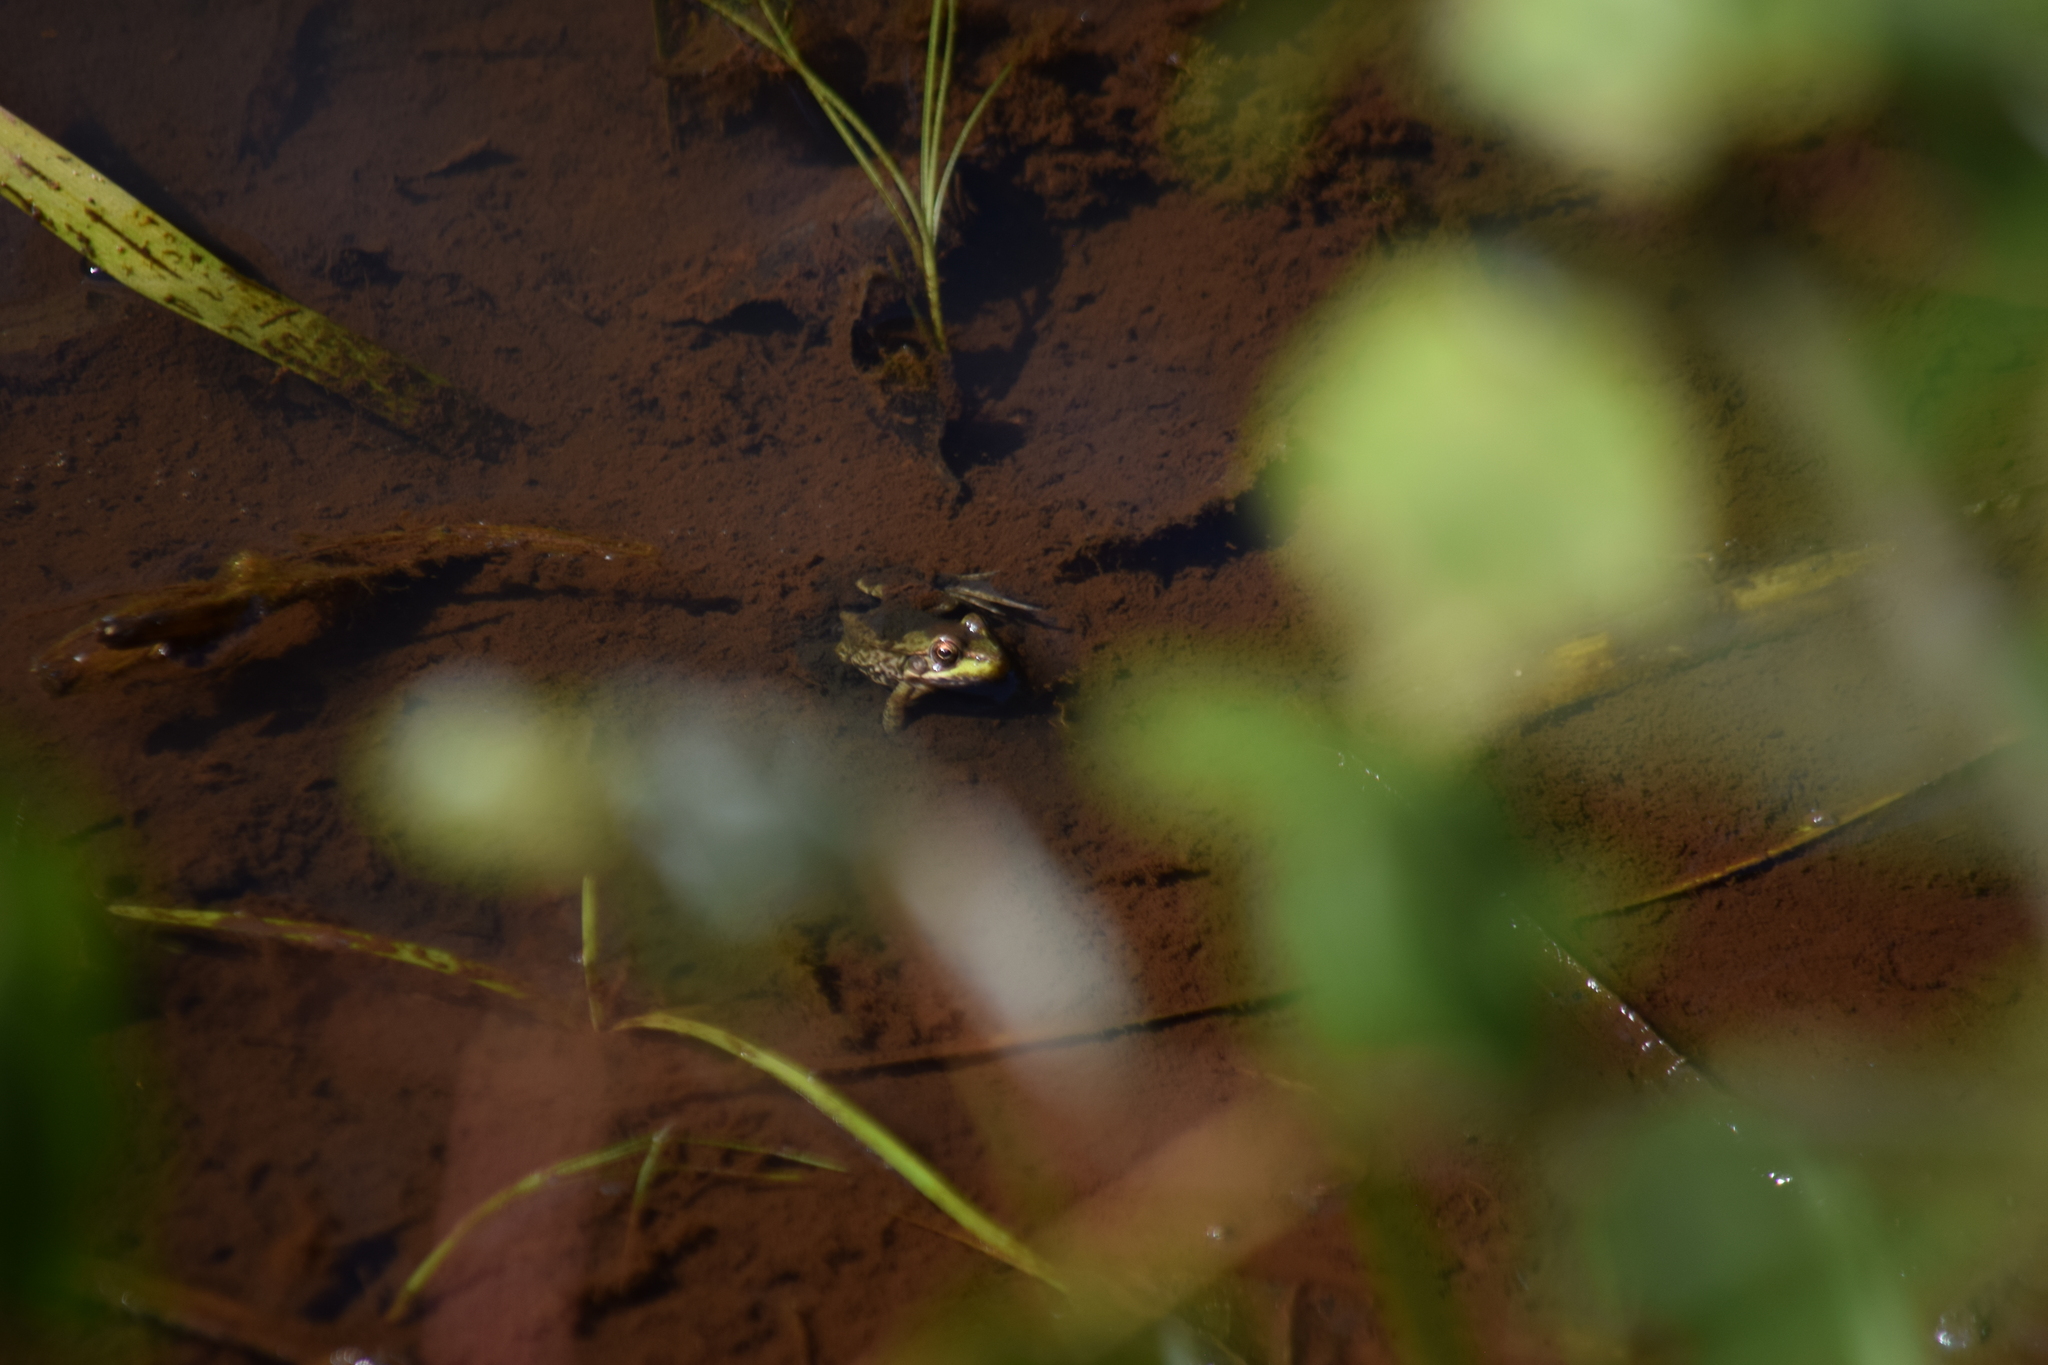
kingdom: Animalia
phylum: Chordata
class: Amphibia
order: Anura
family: Ranidae
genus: Lithobates
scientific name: Lithobates clamitans
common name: Green frog
